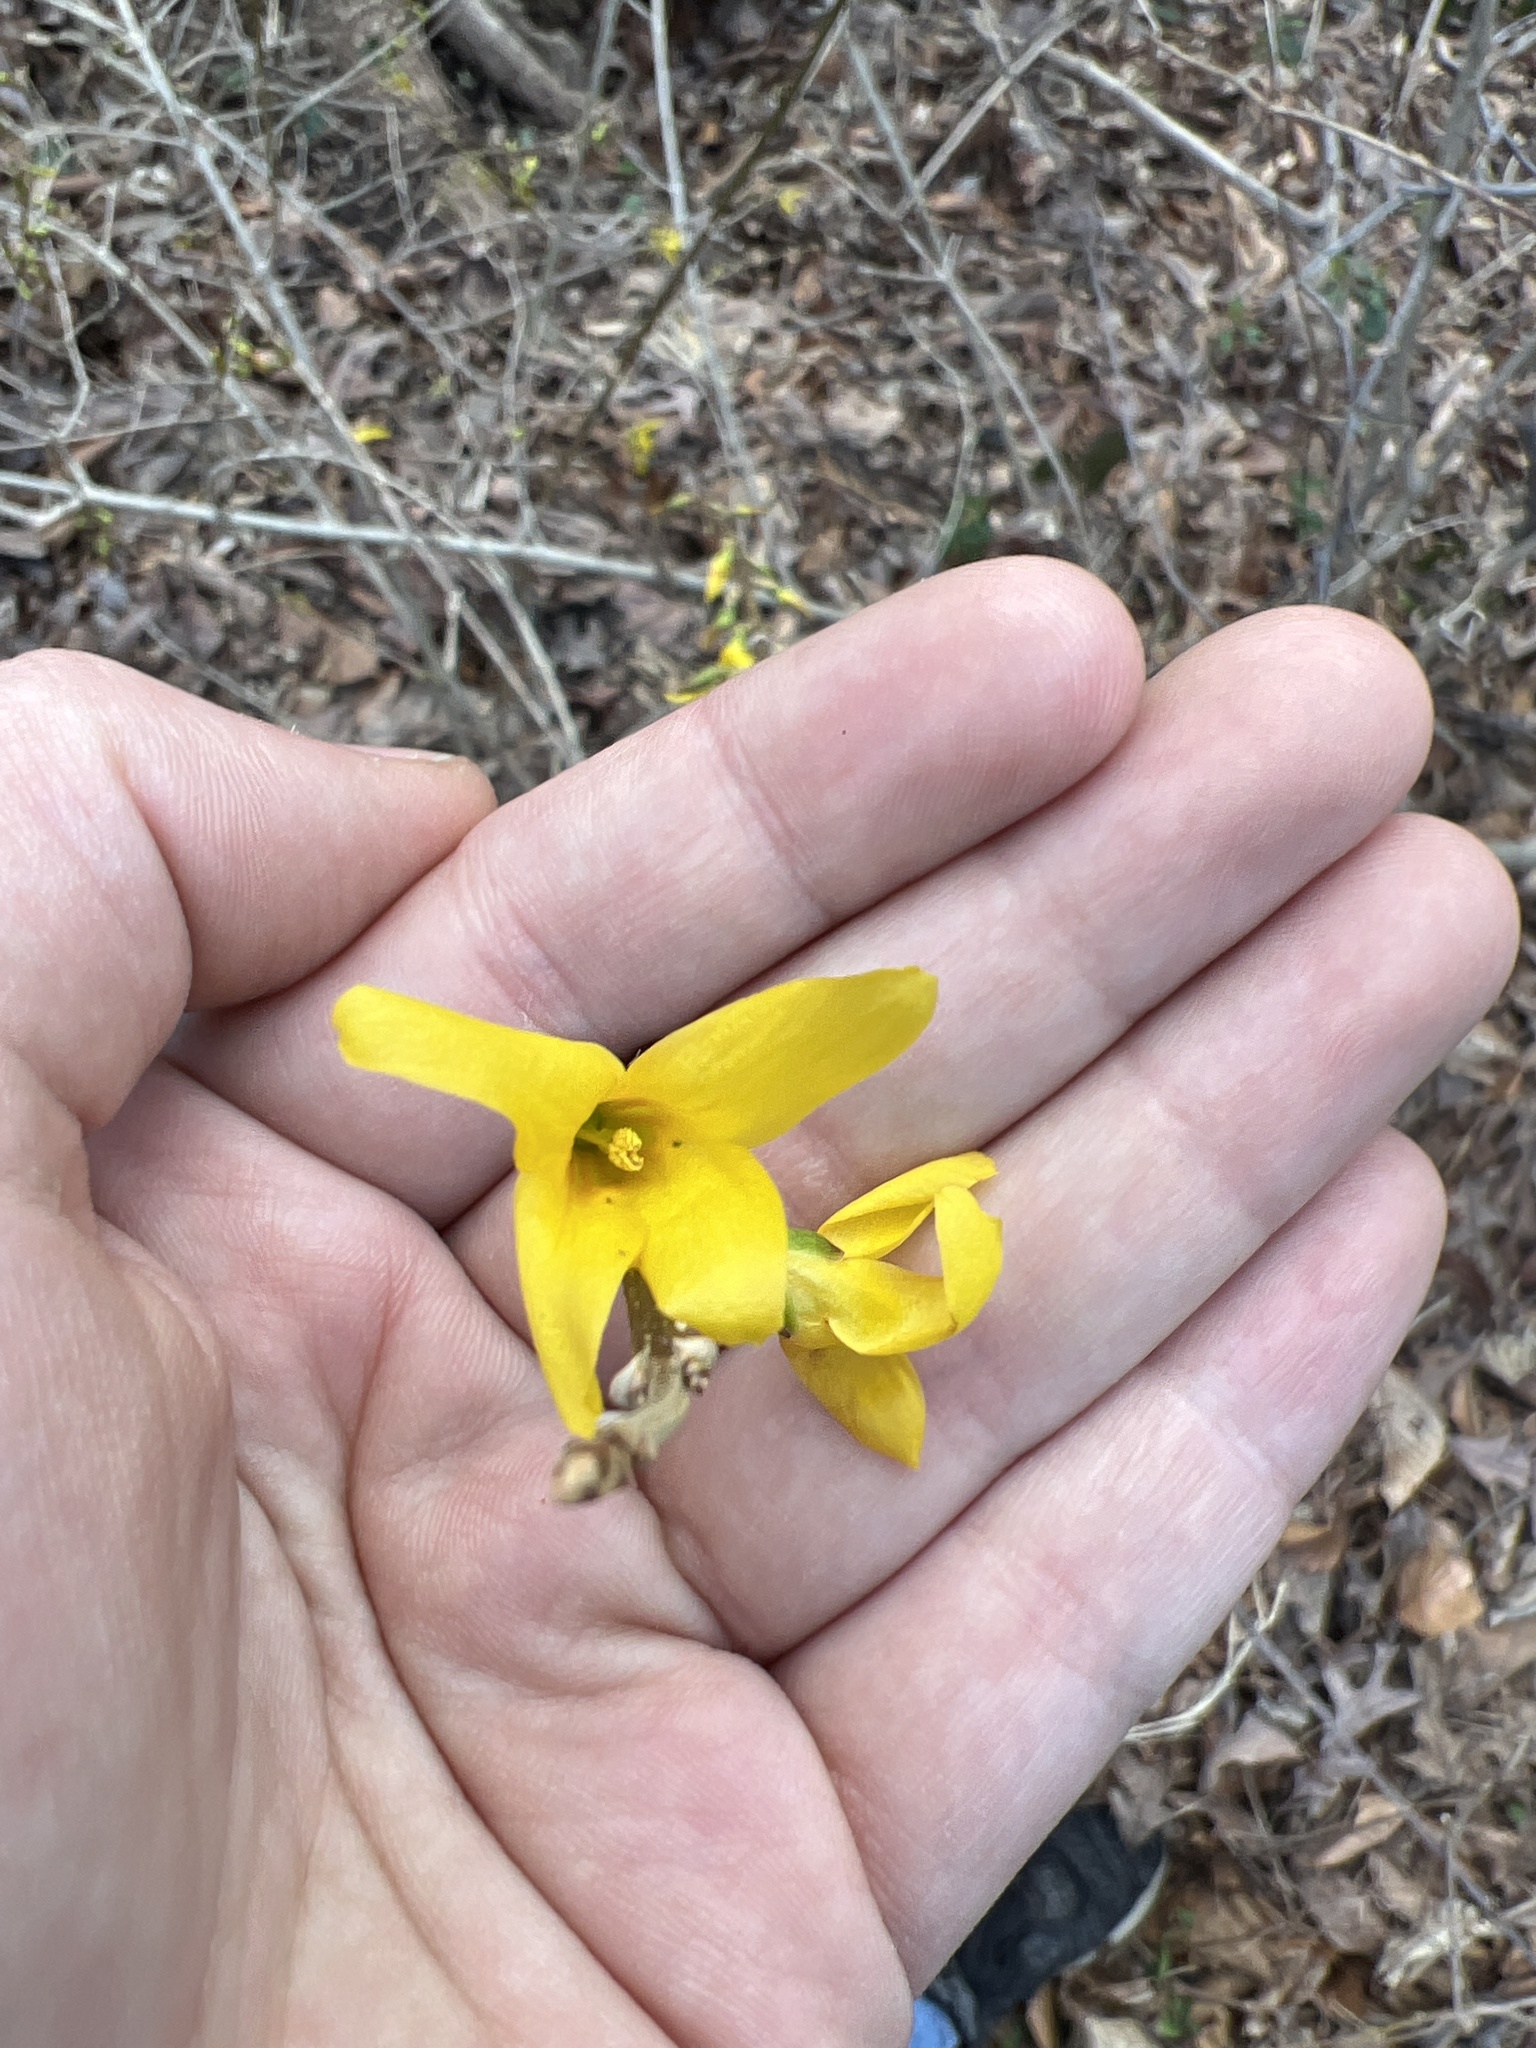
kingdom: Plantae
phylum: Tracheophyta
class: Magnoliopsida
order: Lamiales
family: Oleaceae
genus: Forsythia
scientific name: Forsythia
